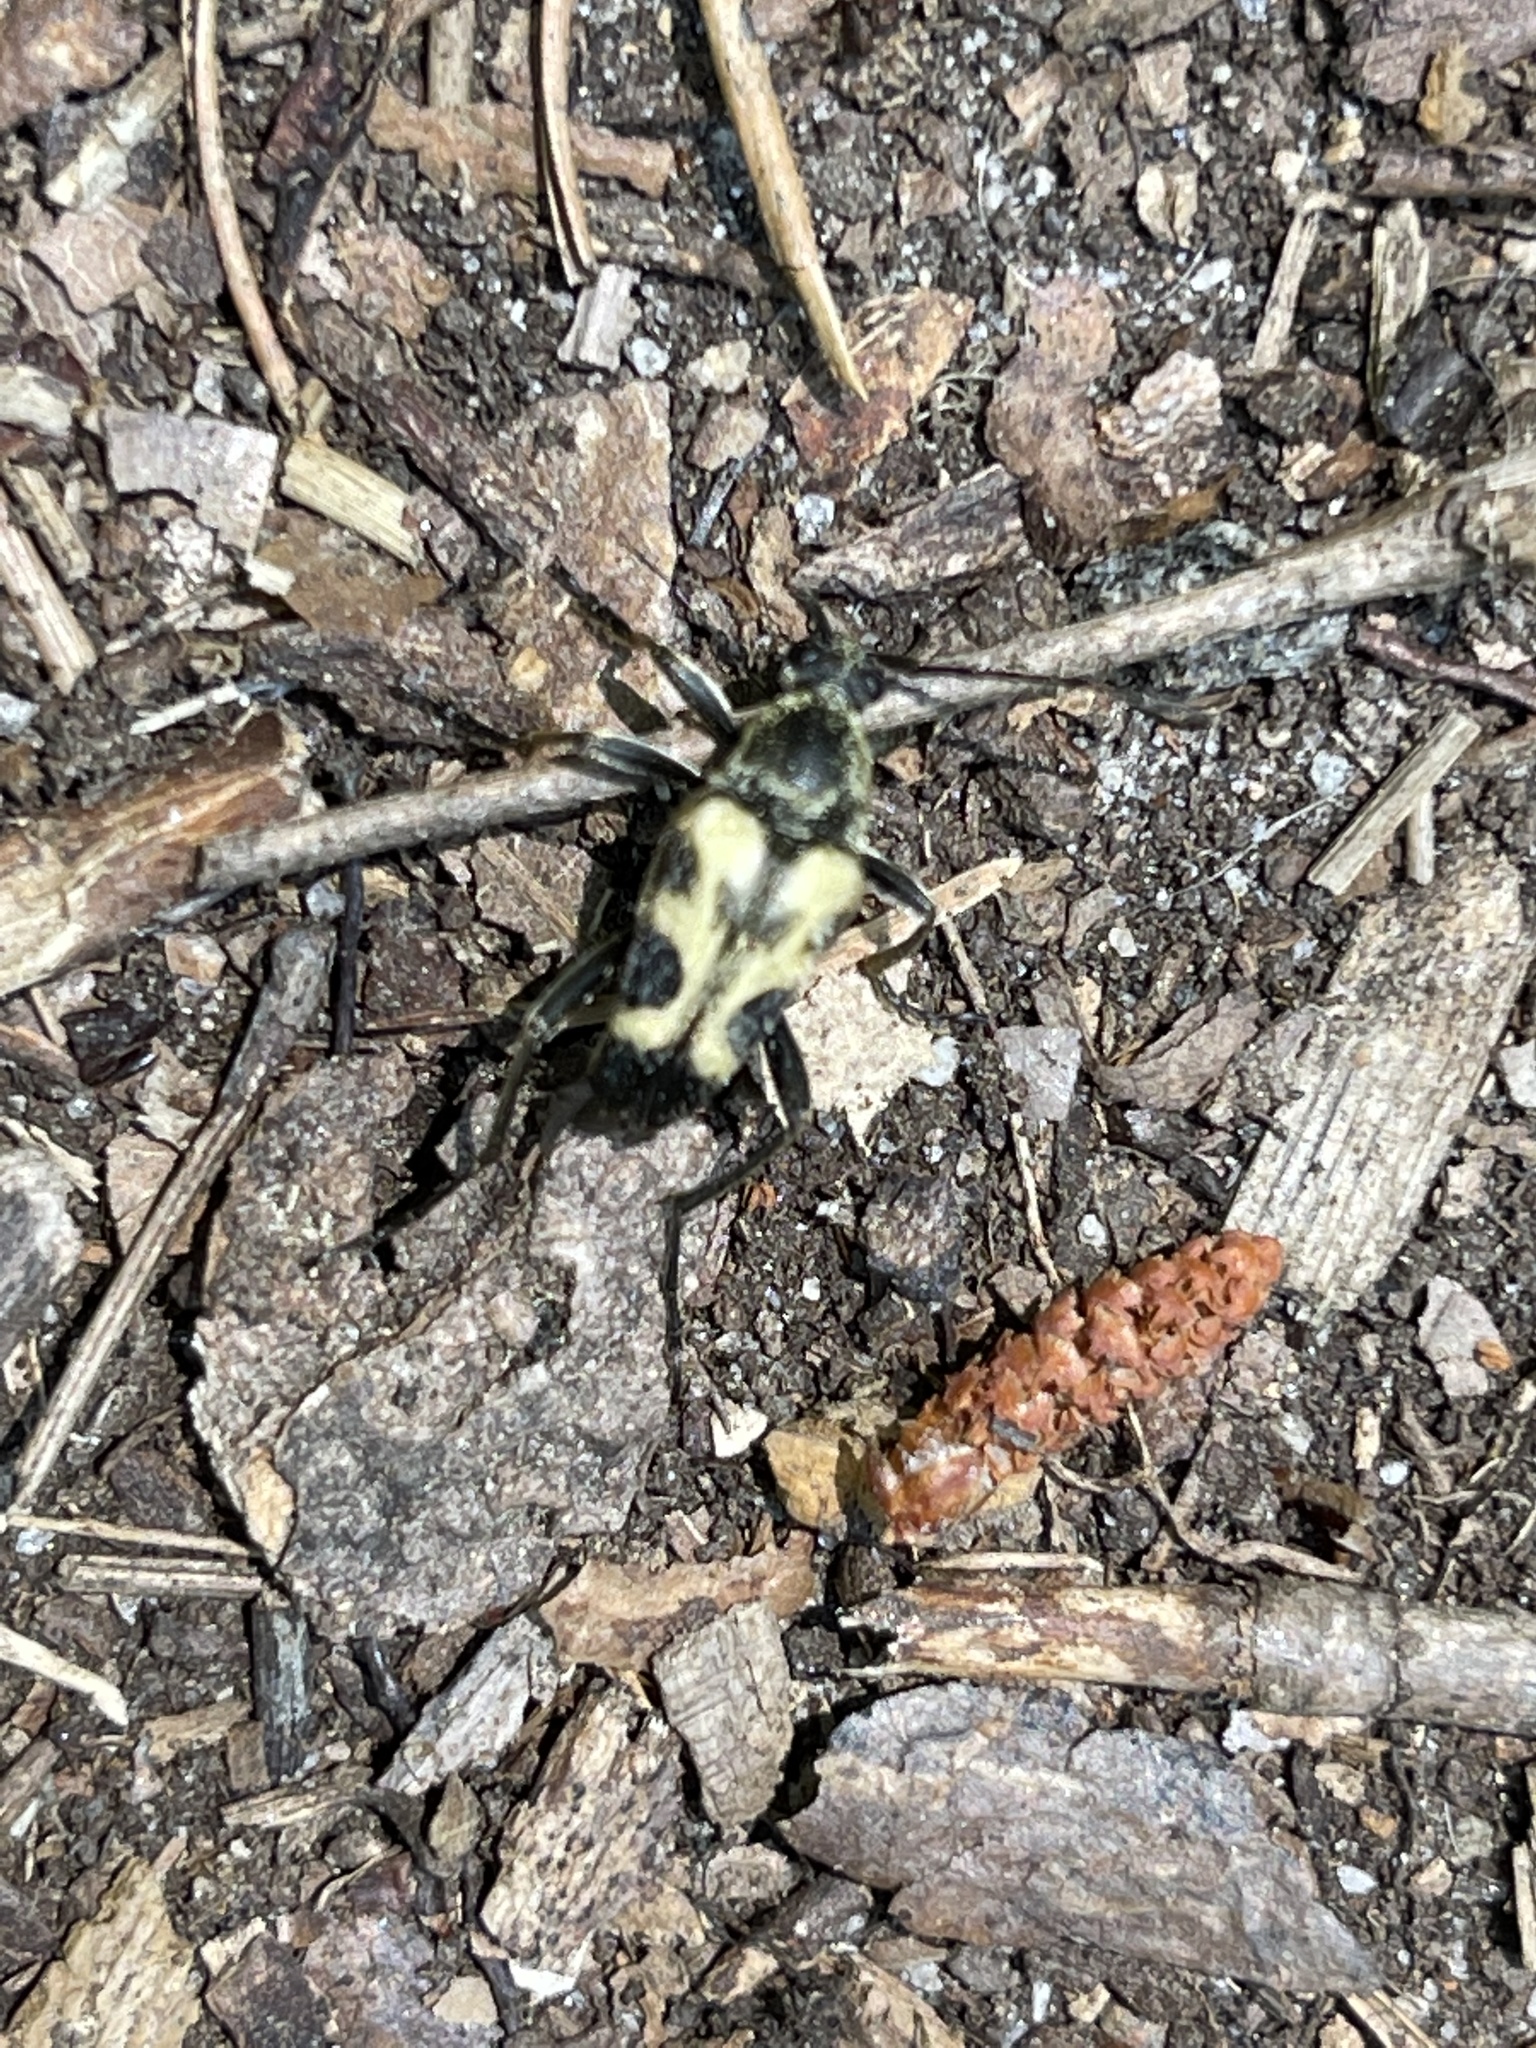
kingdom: Animalia
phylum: Arthropoda
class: Insecta
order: Coleoptera
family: Cerambycidae
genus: Judolia
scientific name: Judolia cordifera
